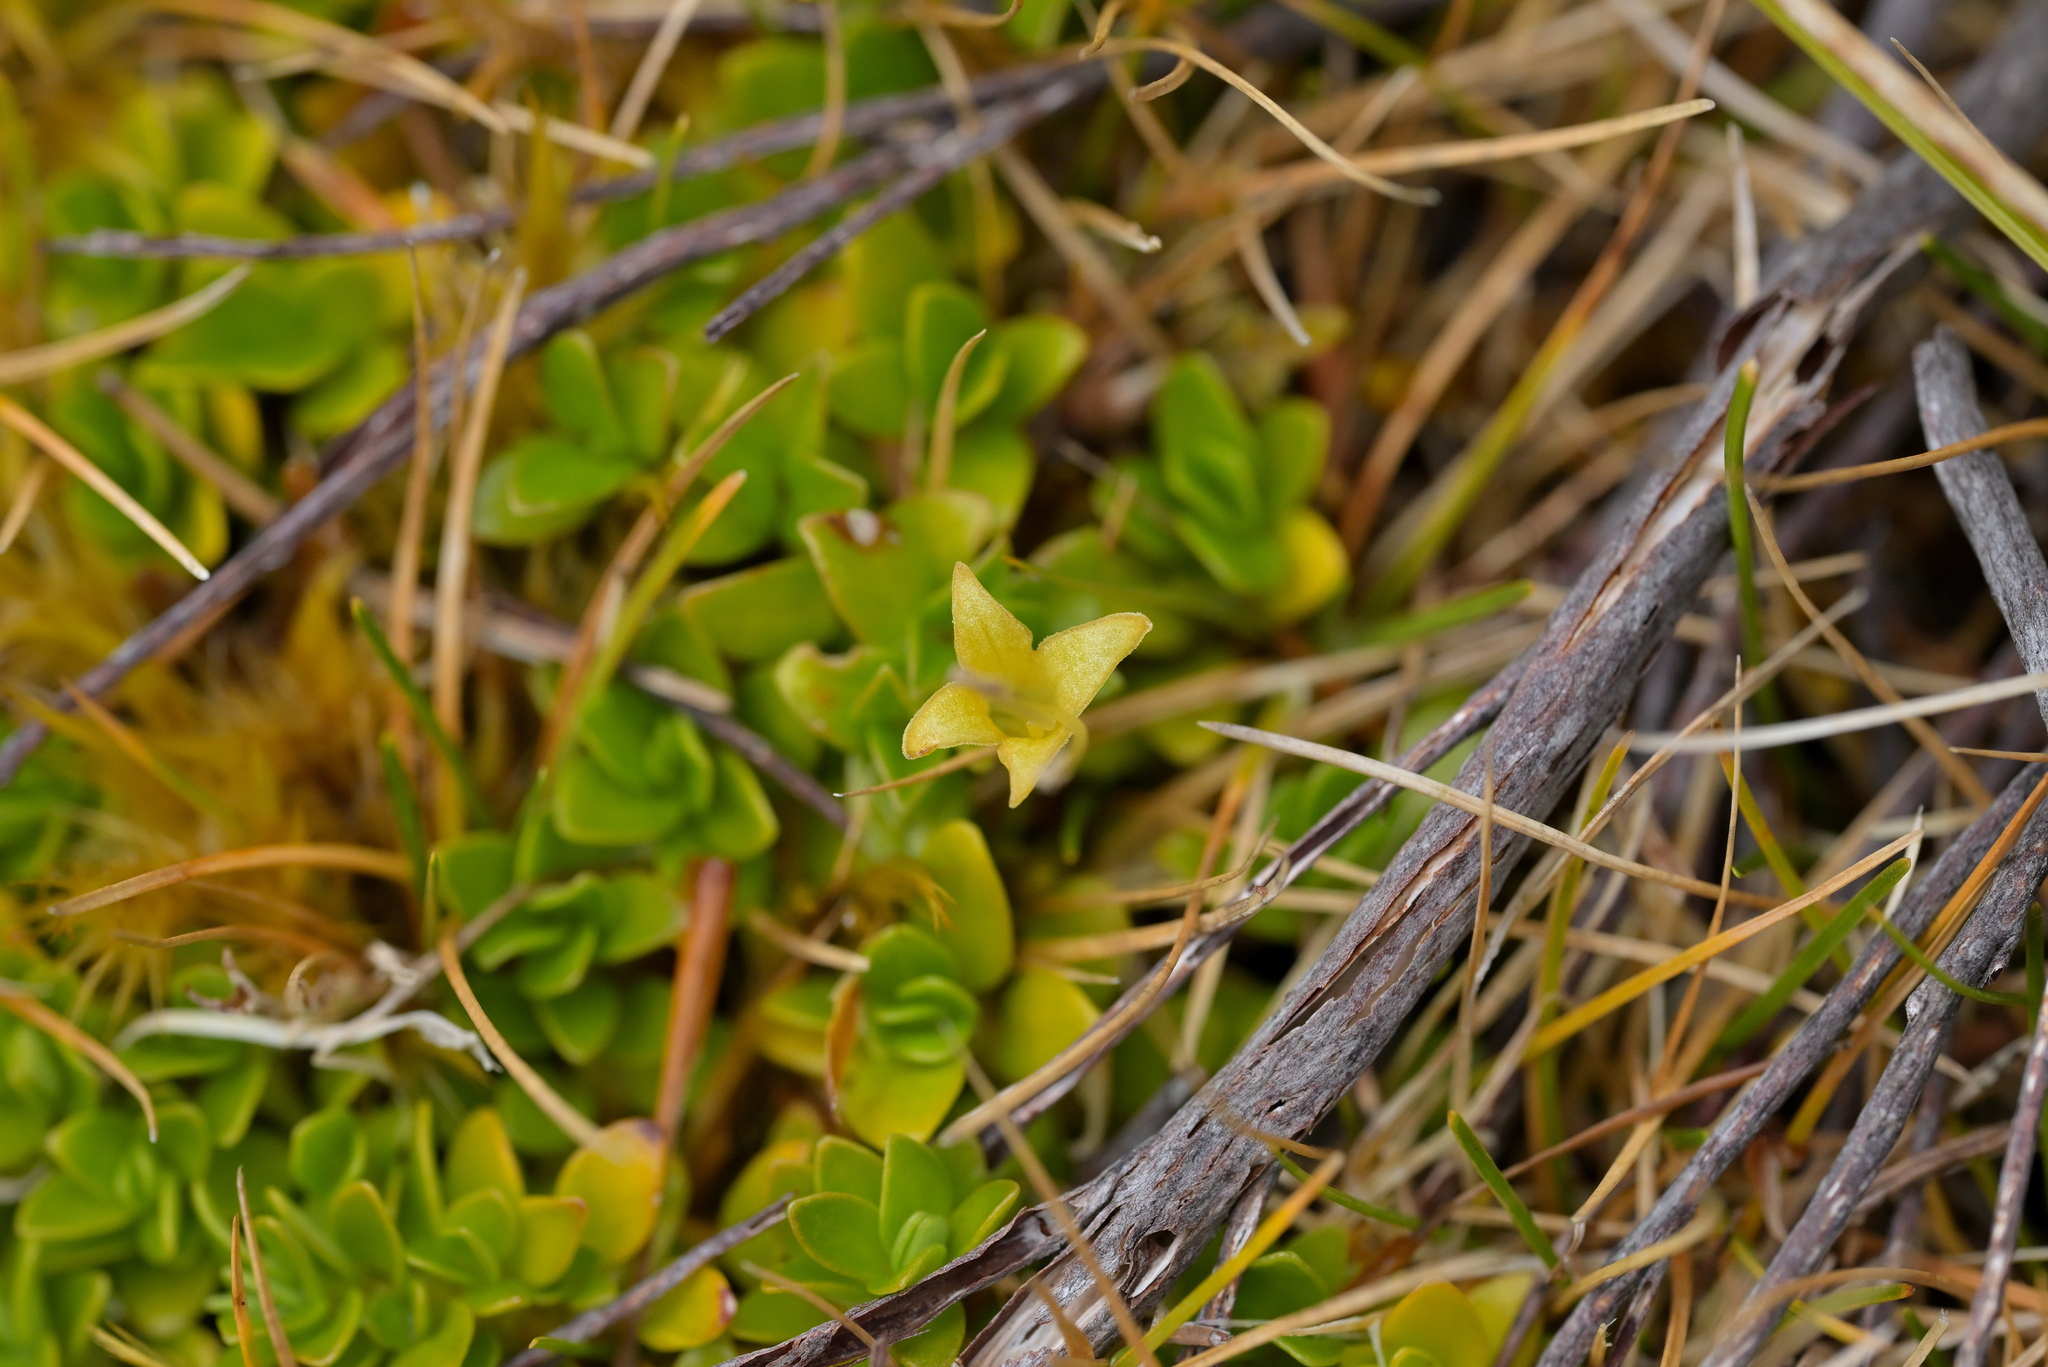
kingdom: Plantae
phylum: Tracheophyta
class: Magnoliopsida
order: Gentianales
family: Rubiaceae
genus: Coprosma
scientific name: Coprosma perpusilla
